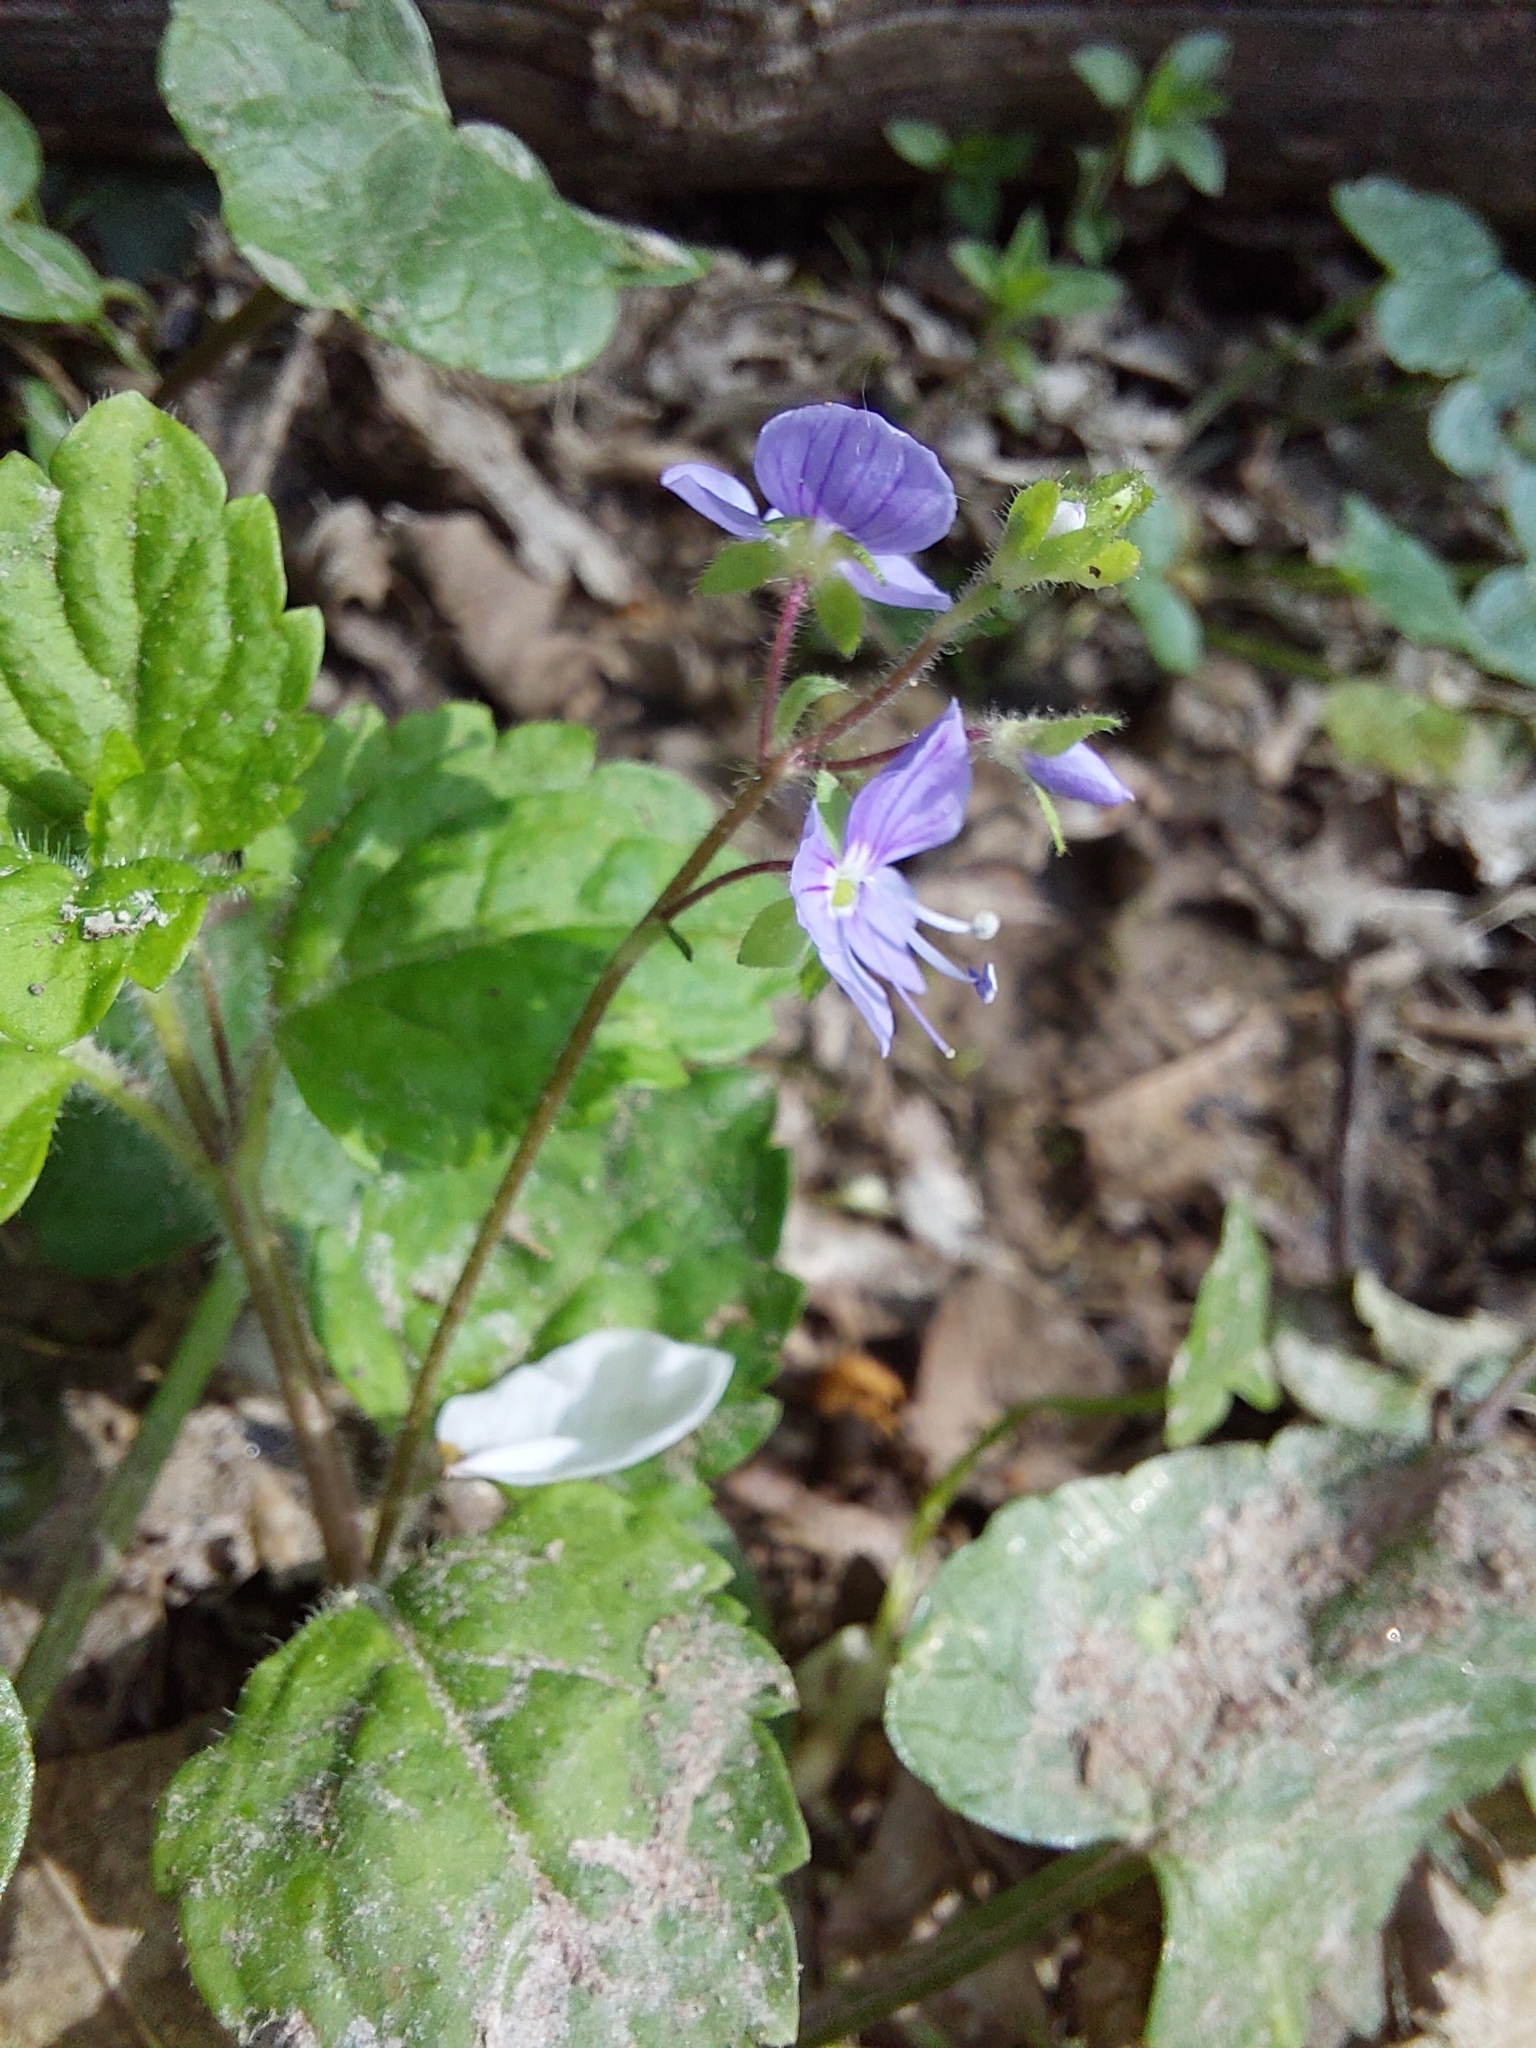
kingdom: Plantae
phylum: Tracheophyta
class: Magnoliopsida
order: Lamiales
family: Plantaginaceae
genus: Veronica
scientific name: Veronica montana
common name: Wood speedwell
